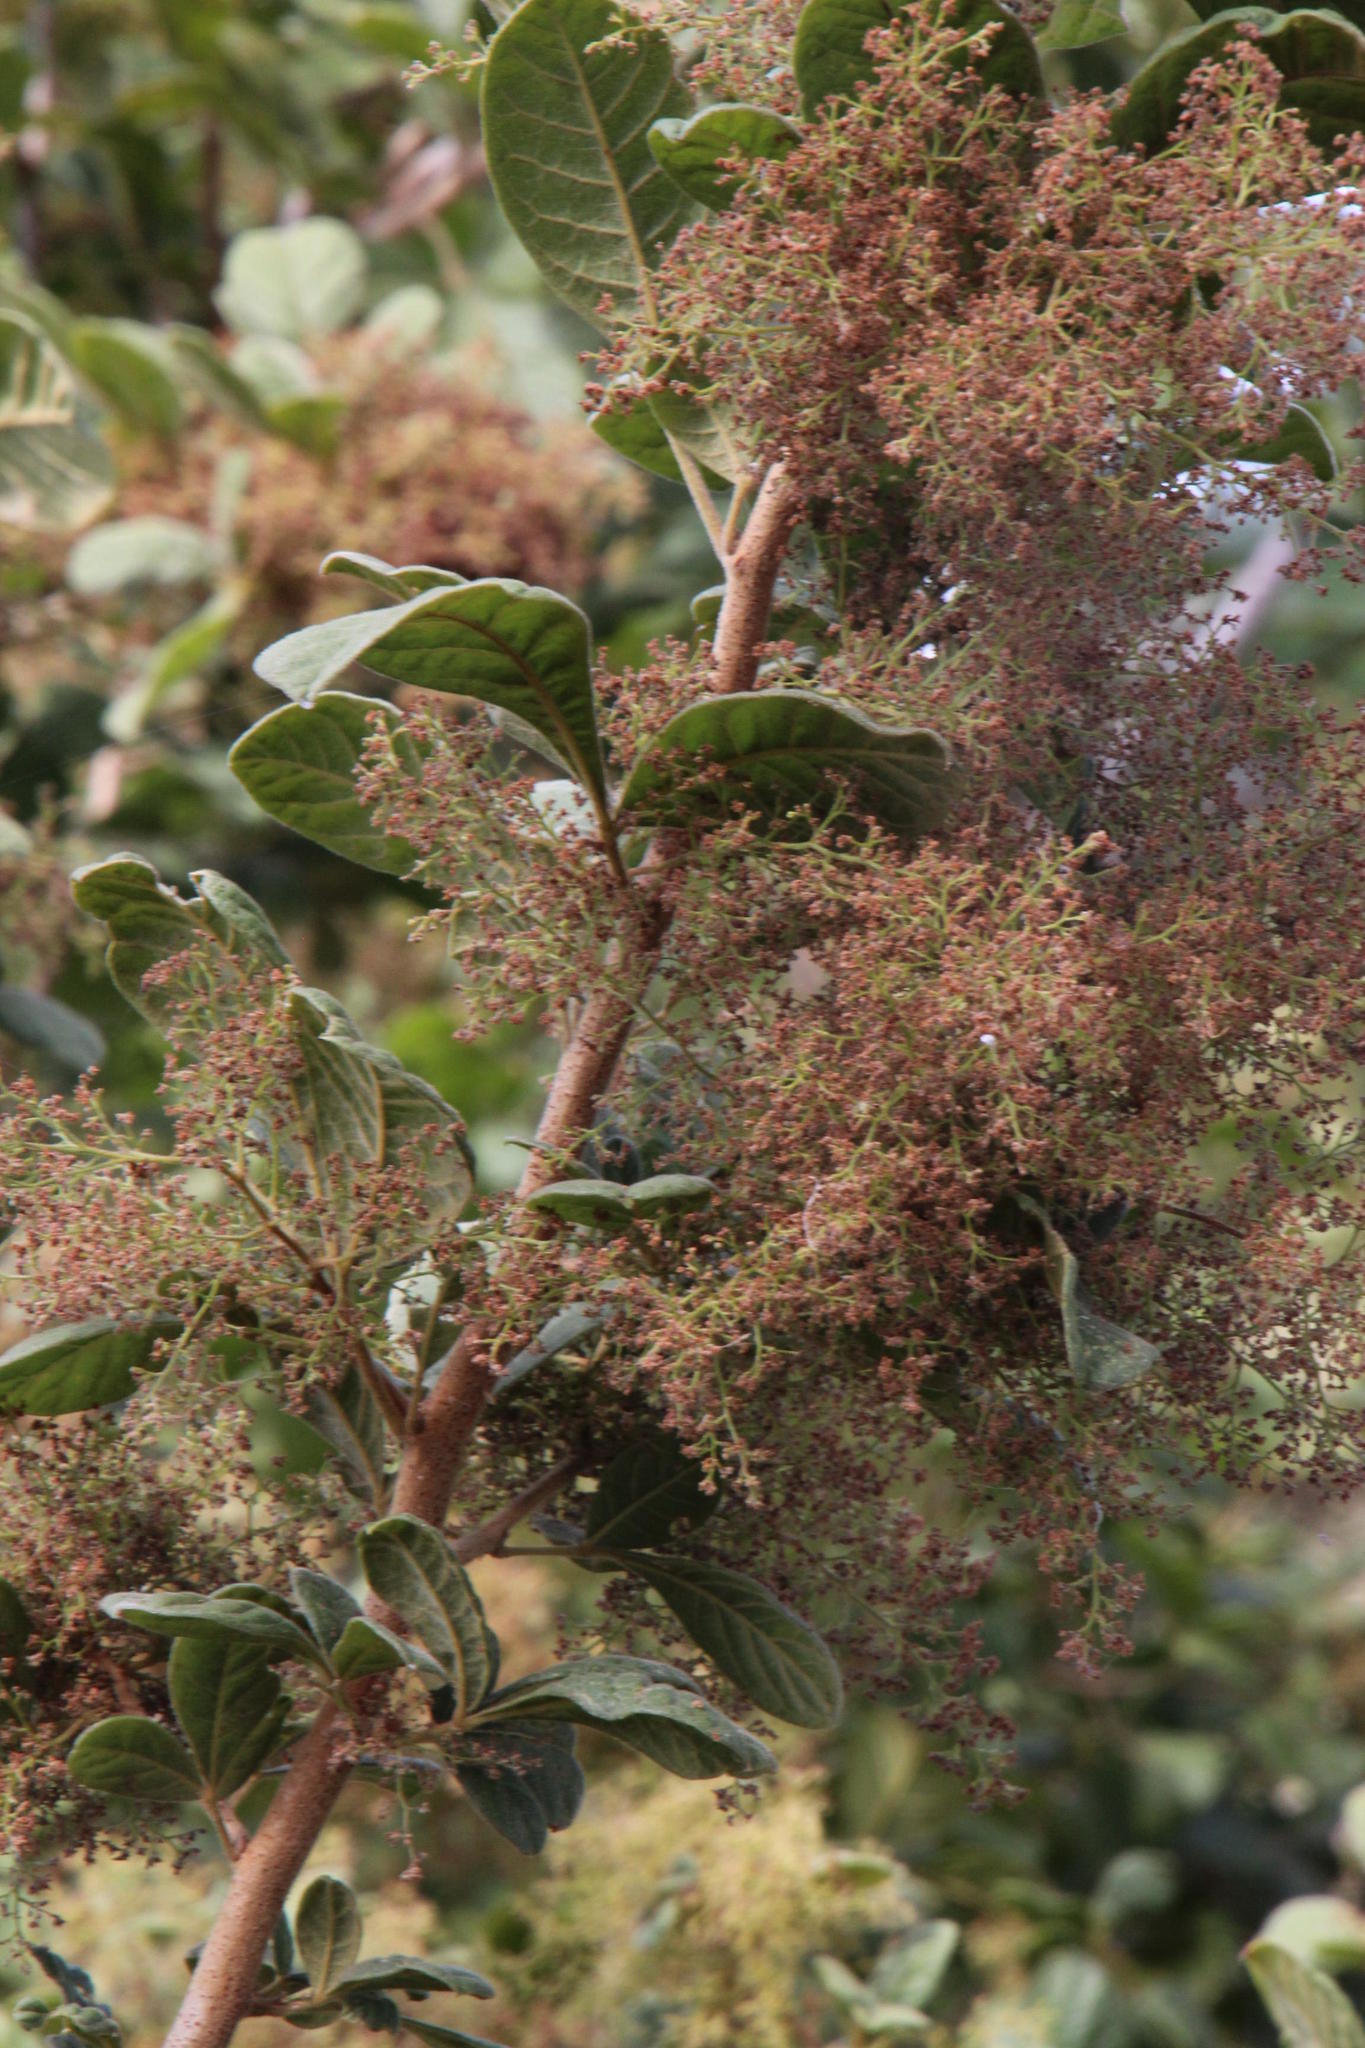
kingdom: Plantae
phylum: Tracheophyta
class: Magnoliopsida
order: Sapindales
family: Anacardiaceae
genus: Searsia
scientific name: Searsia pyroides
